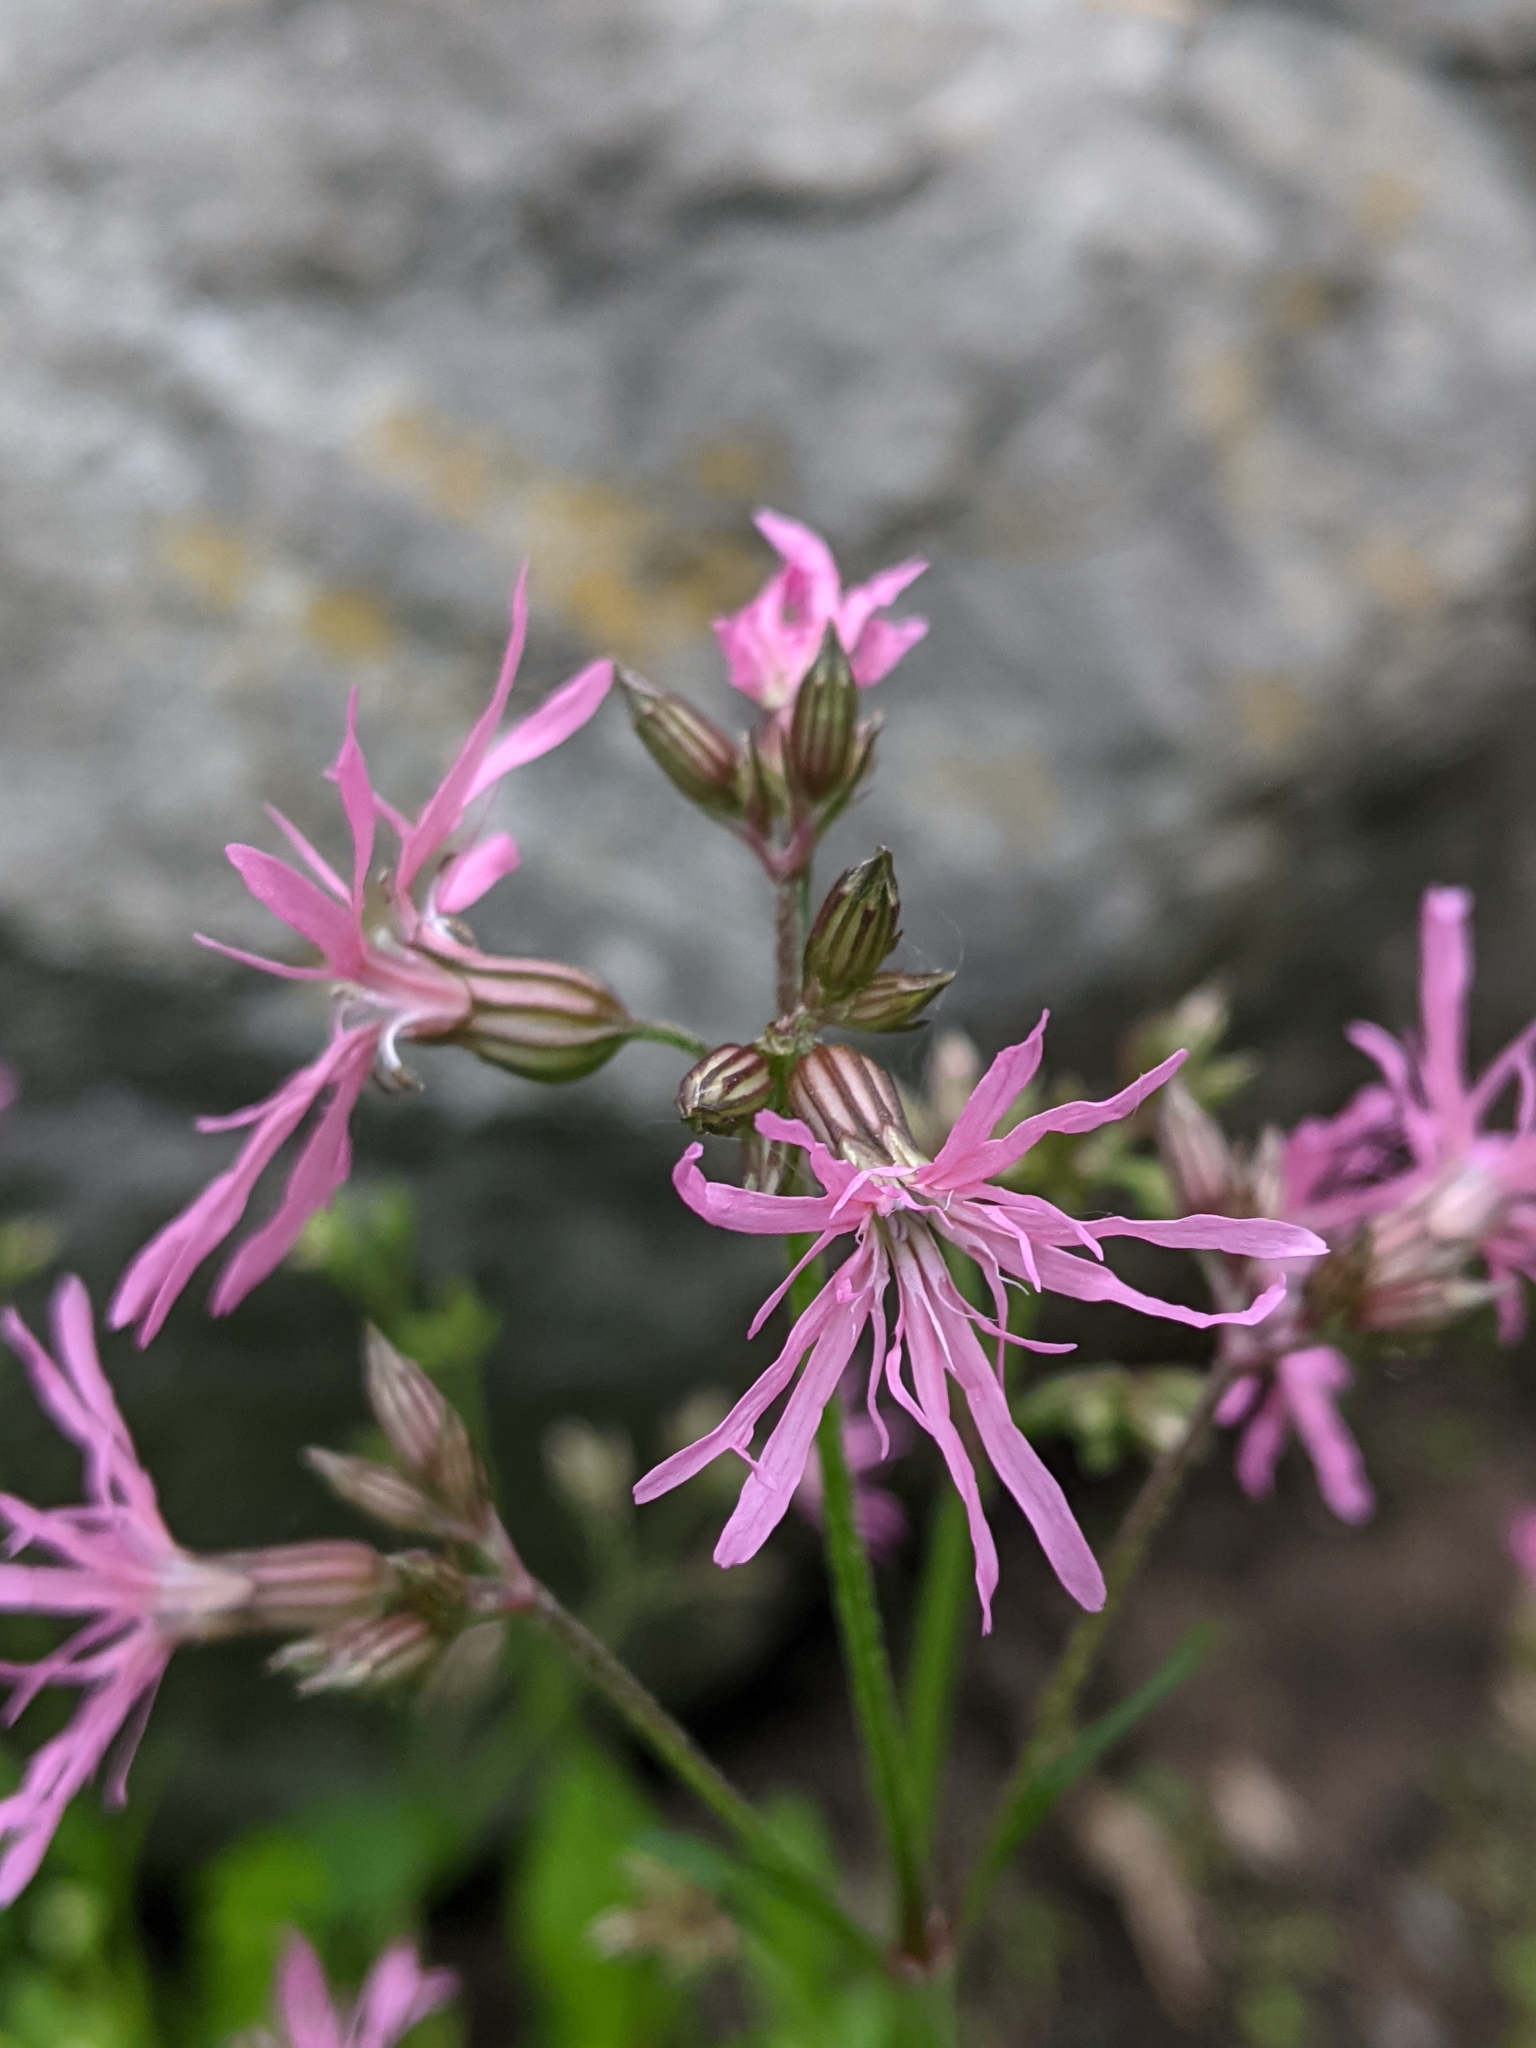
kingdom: Plantae
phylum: Tracheophyta
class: Magnoliopsida
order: Caryophyllales
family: Caryophyllaceae
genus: Silene
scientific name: Silene flos-cuculi
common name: Ragged-robin
